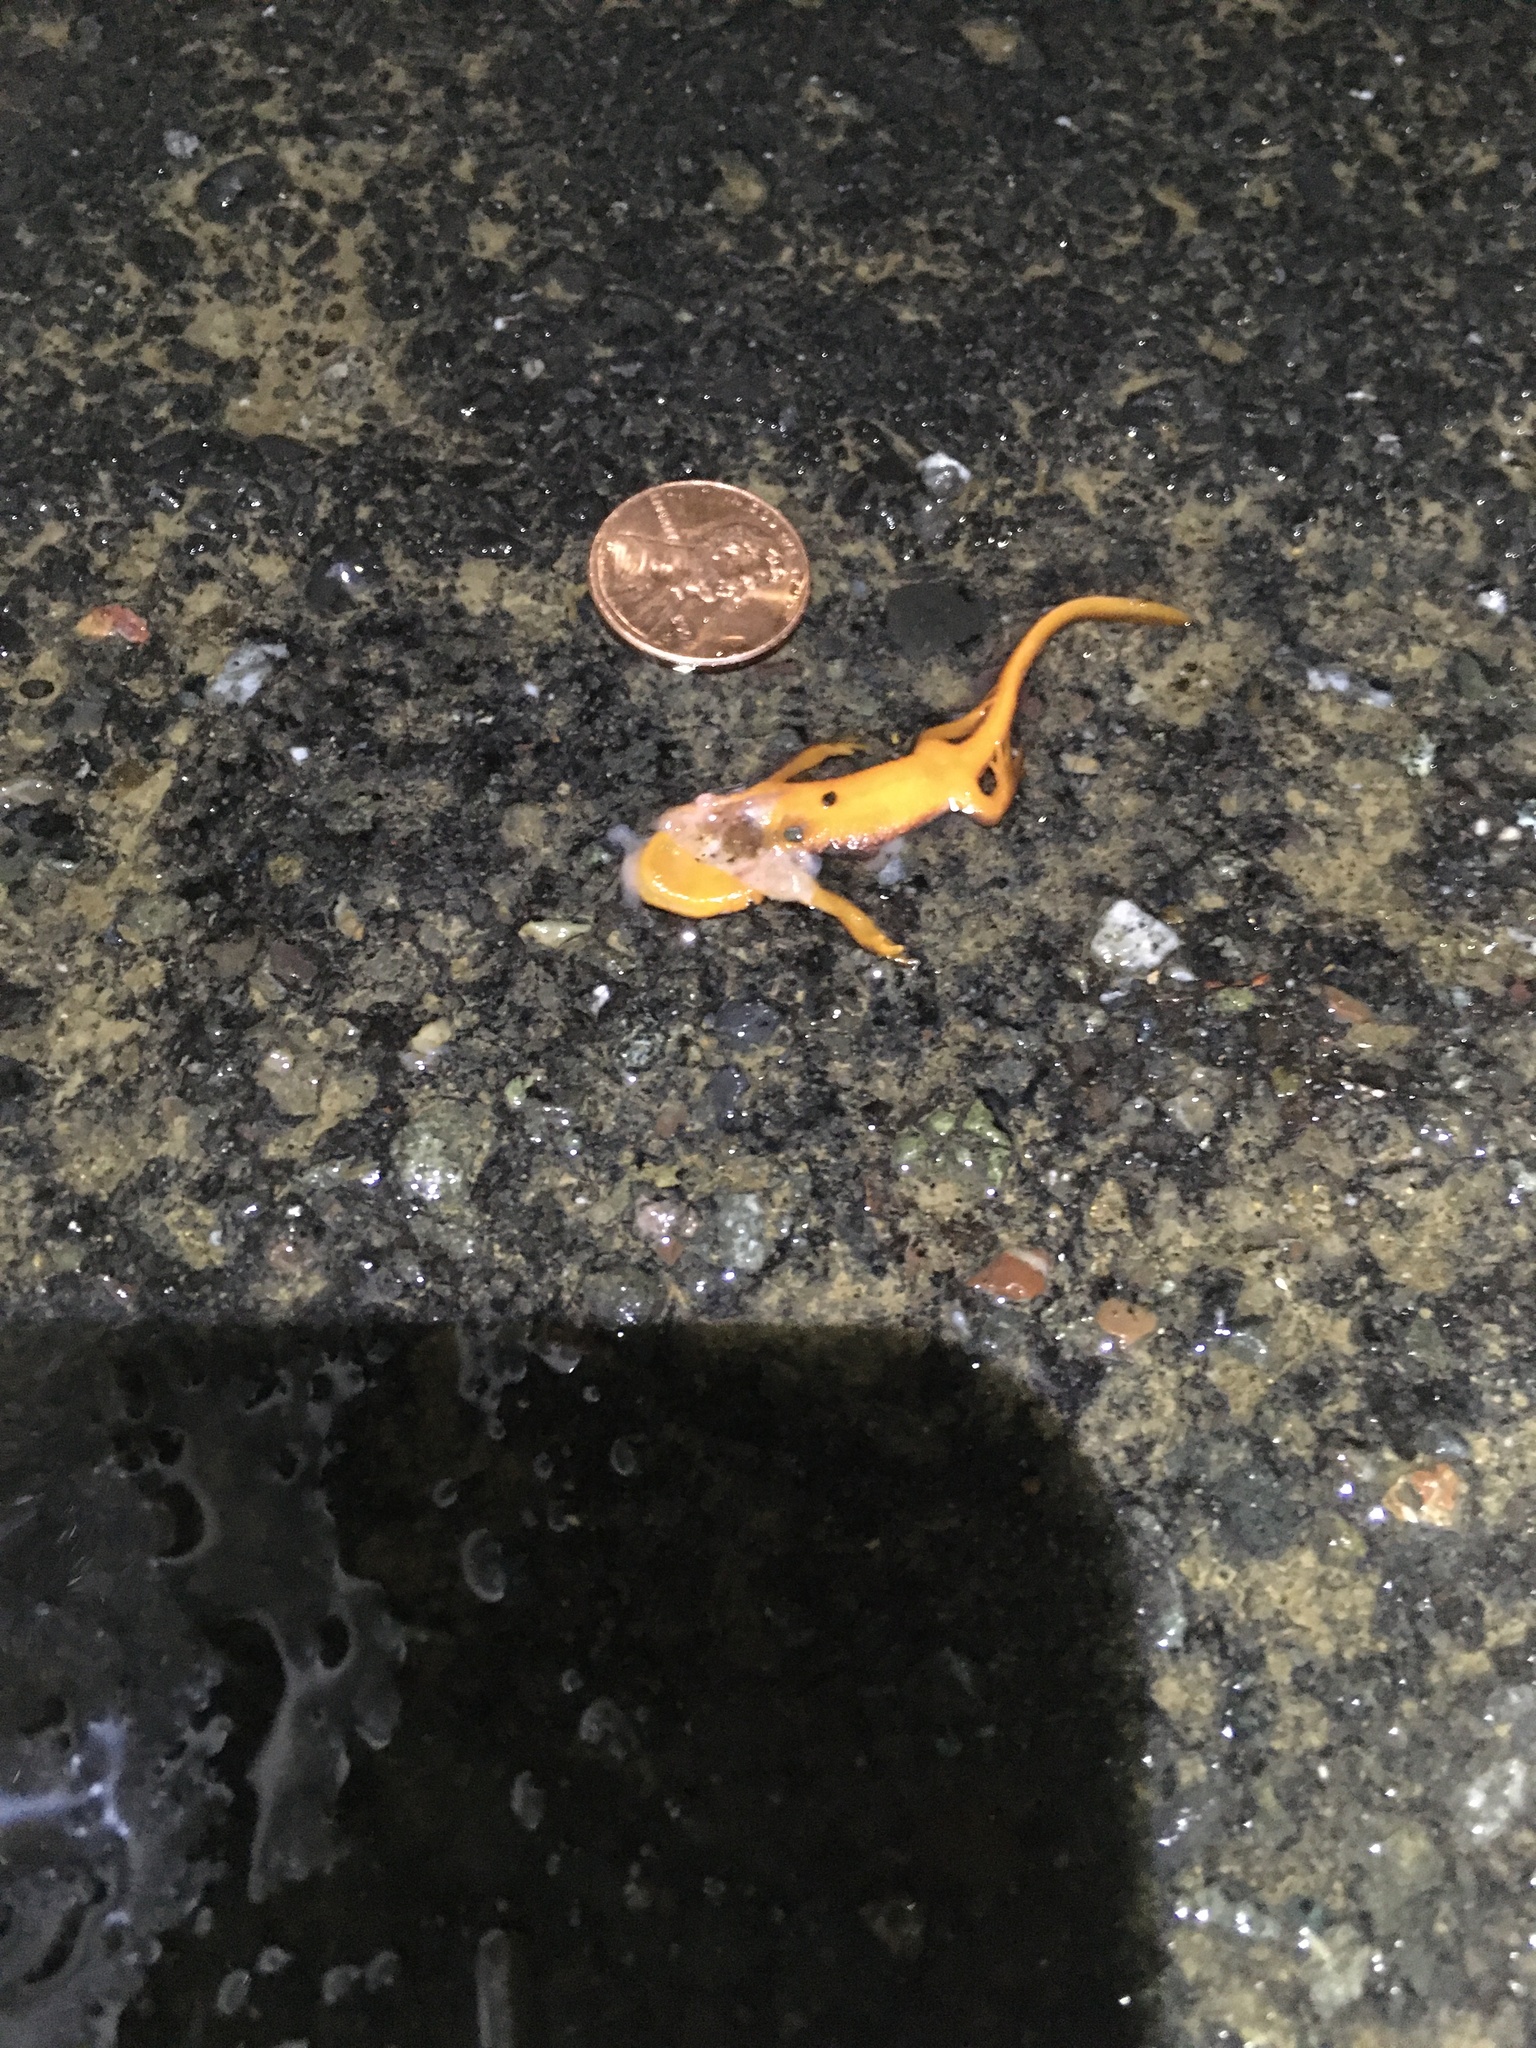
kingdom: Animalia
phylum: Chordata
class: Amphibia
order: Caudata
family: Salamandridae
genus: Taricha
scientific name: Taricha
